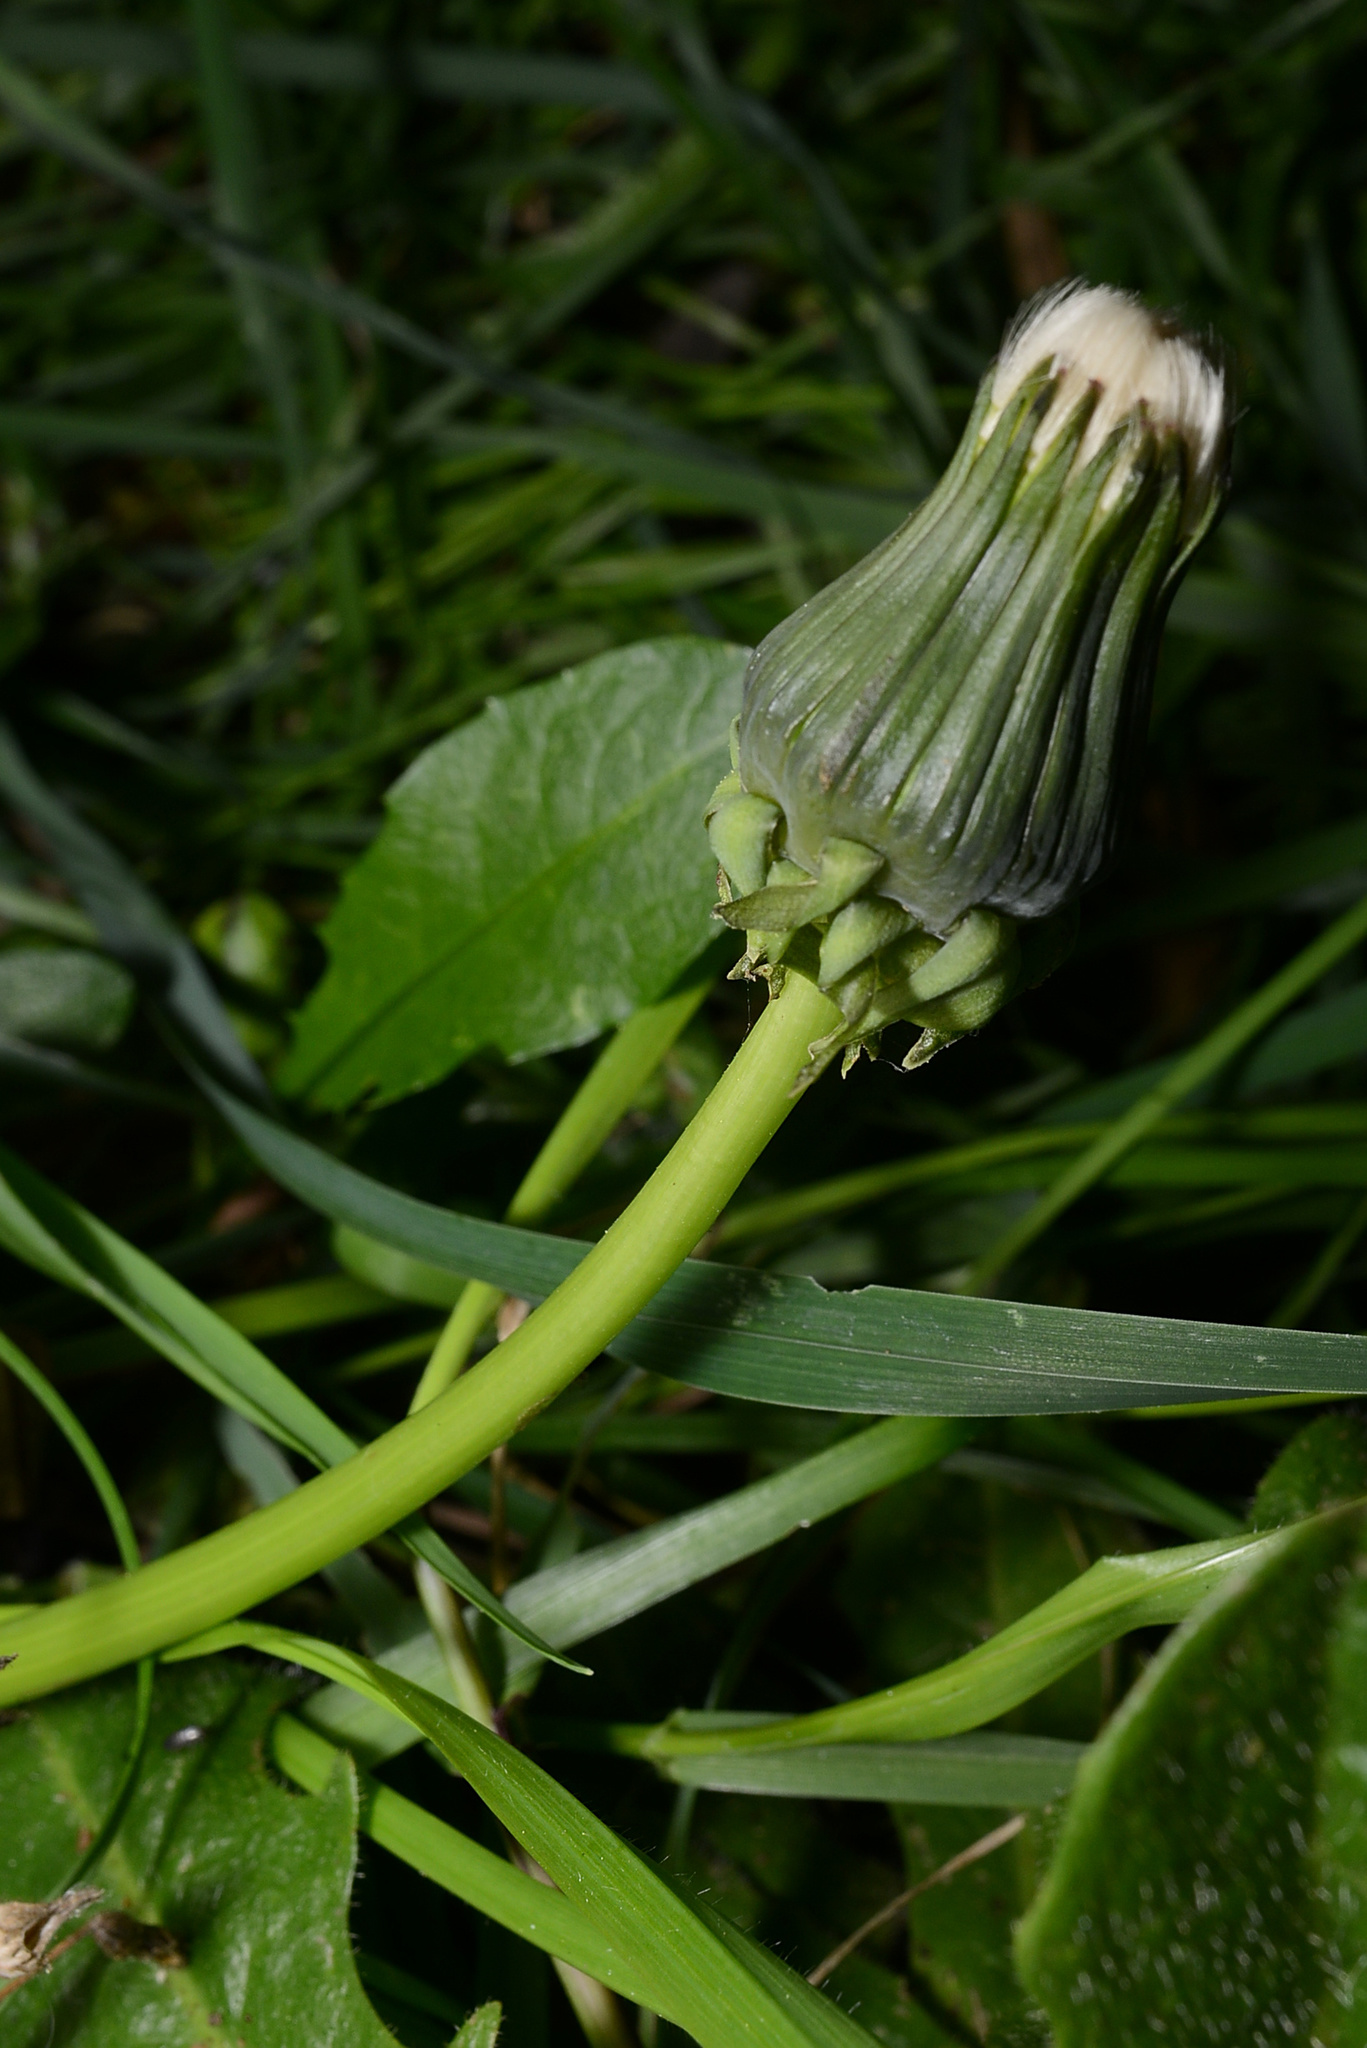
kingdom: Plantae
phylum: Tracheophyta
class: Magnoliopsida
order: Asterales
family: Asteraceae
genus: Taraxacum
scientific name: Taraxacum officinale
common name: Common dandelion
